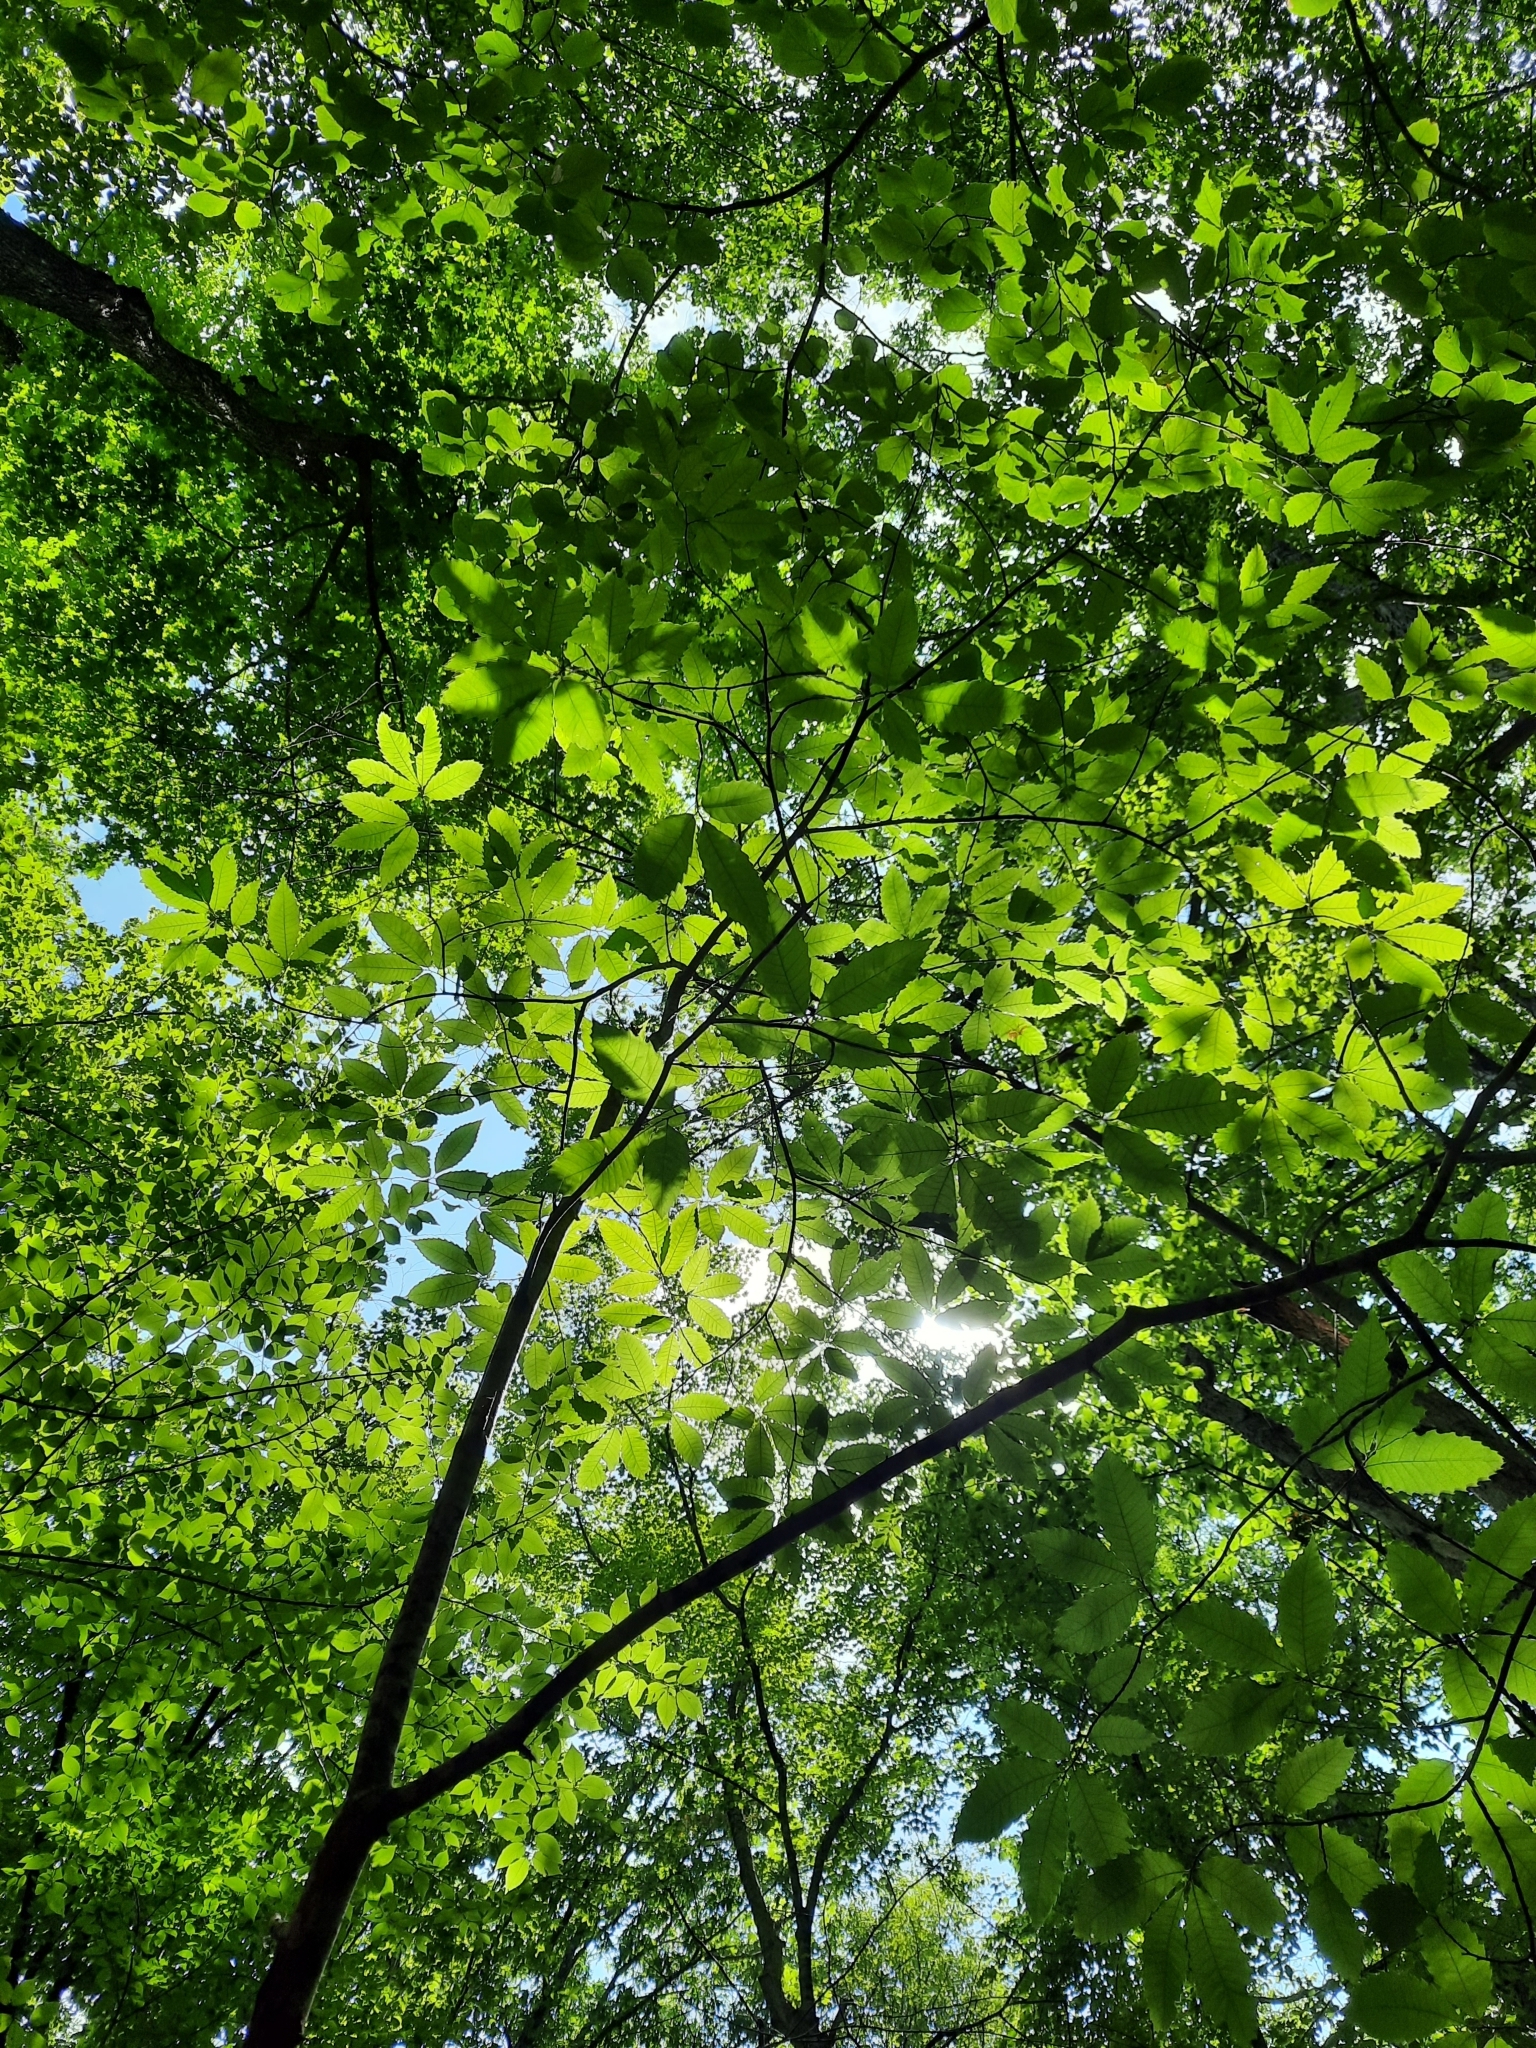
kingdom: Plantae
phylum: Tracheophyta
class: Magnoliopsida
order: Fagales
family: Fagaceae
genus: Castanea
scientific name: Castanea dentata
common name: American chestnut
